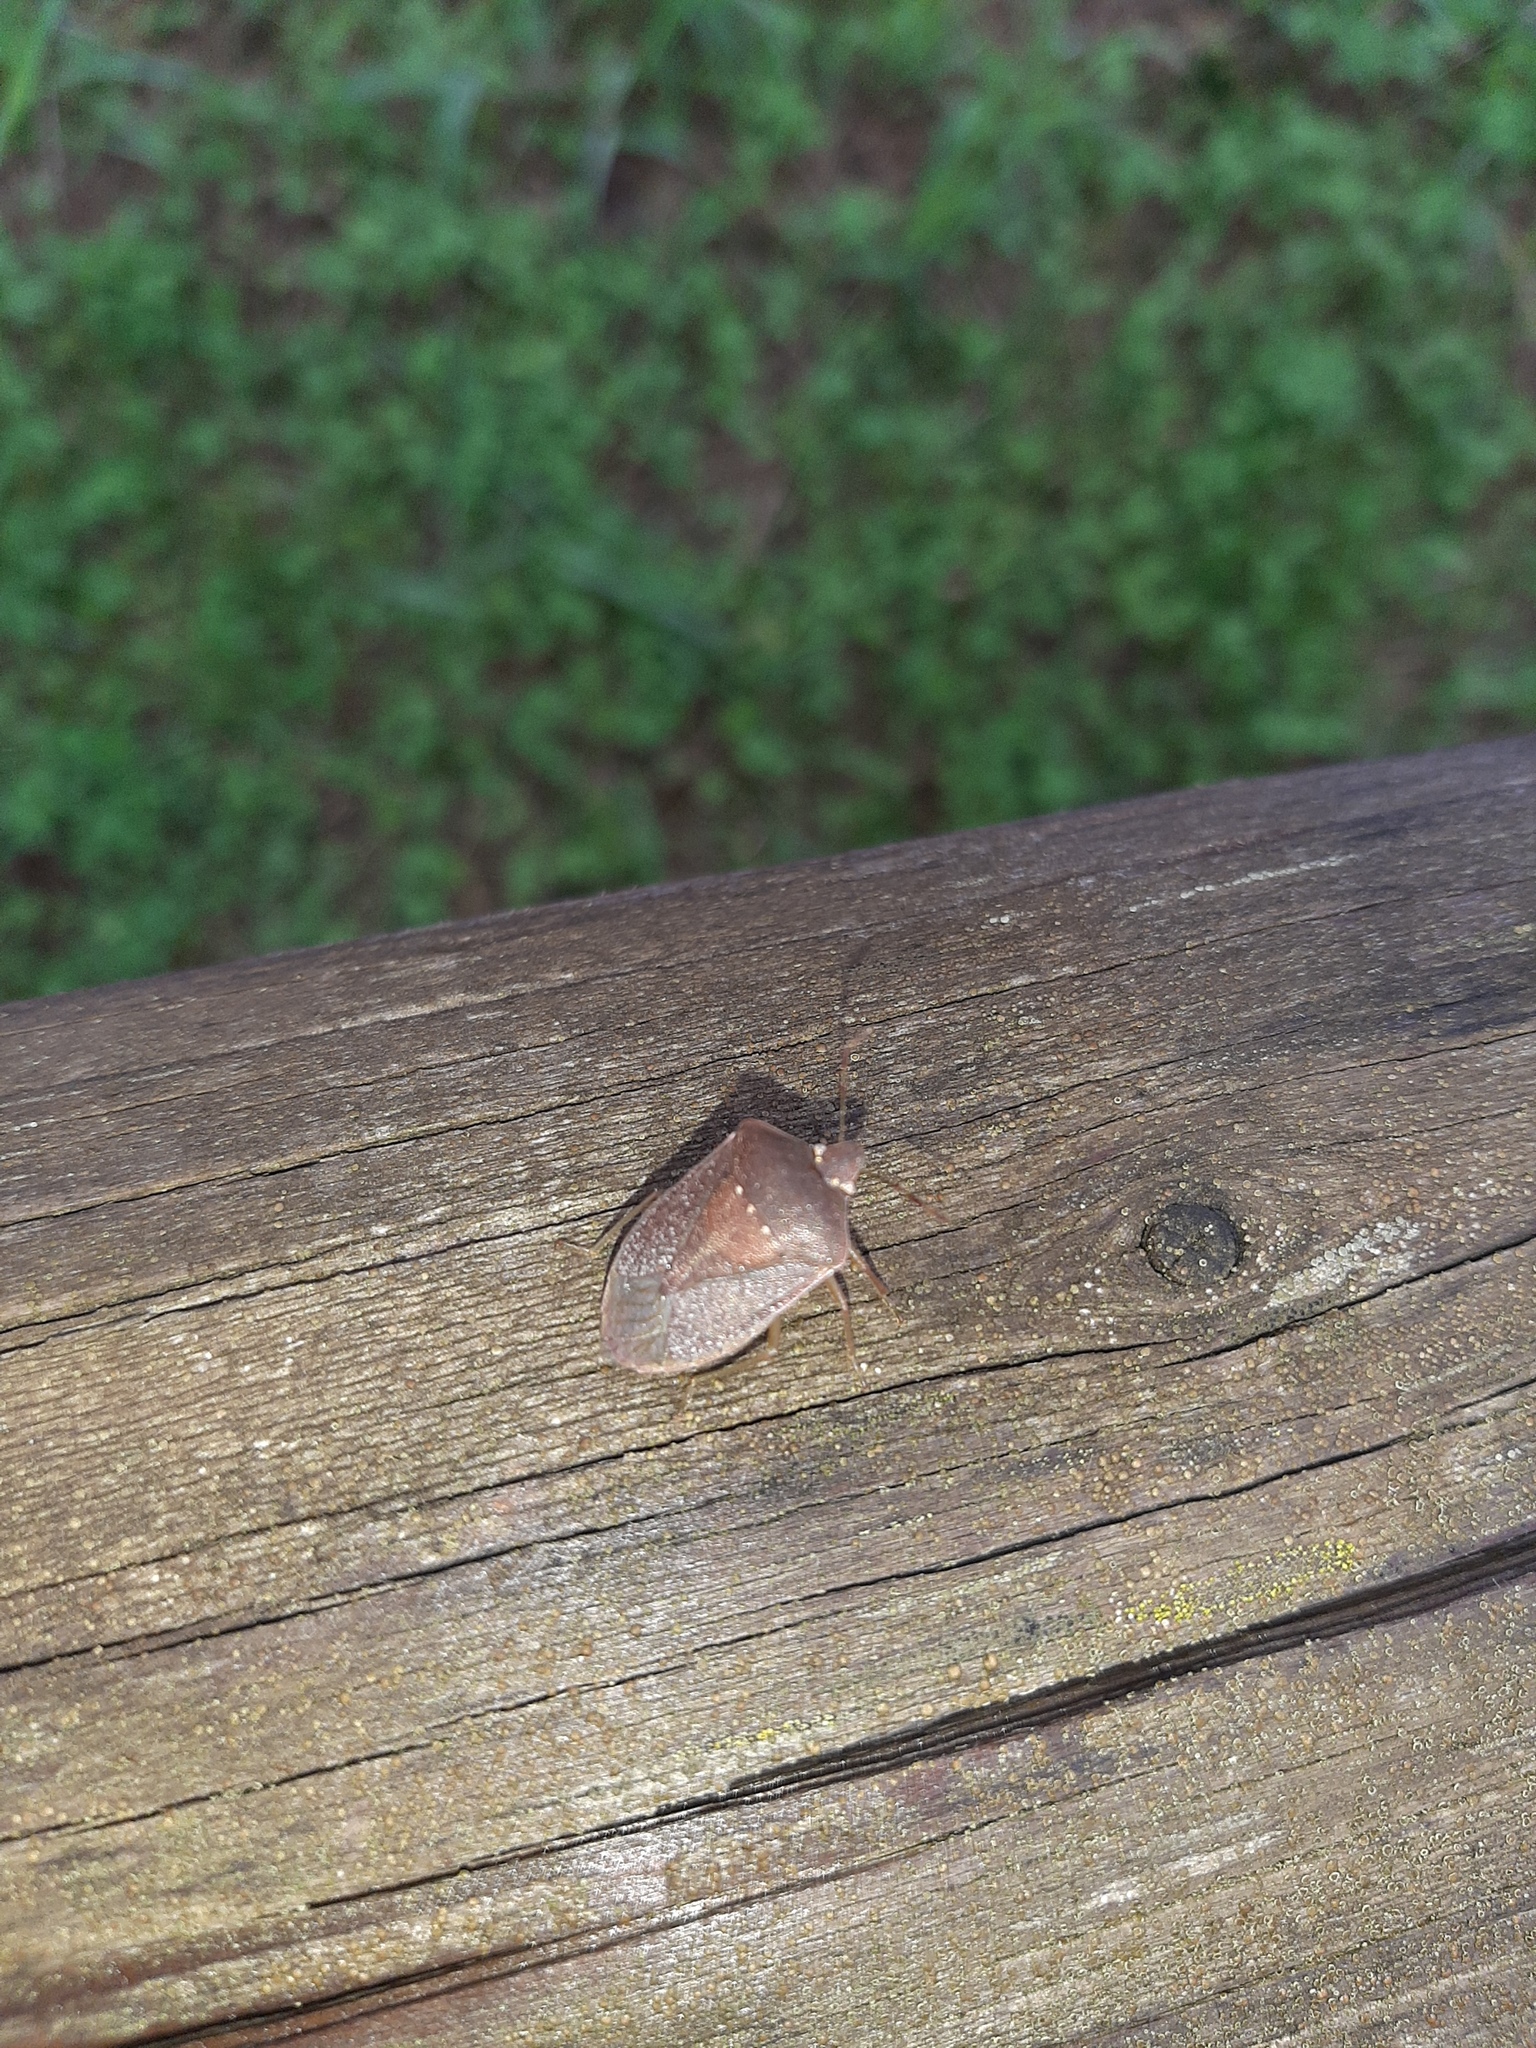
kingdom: Animalia
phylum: Arthropoda
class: Insecta
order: Hemiptera
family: Pentatomidae
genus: Nezara
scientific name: Nezara viridula
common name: Southern green stink bug
